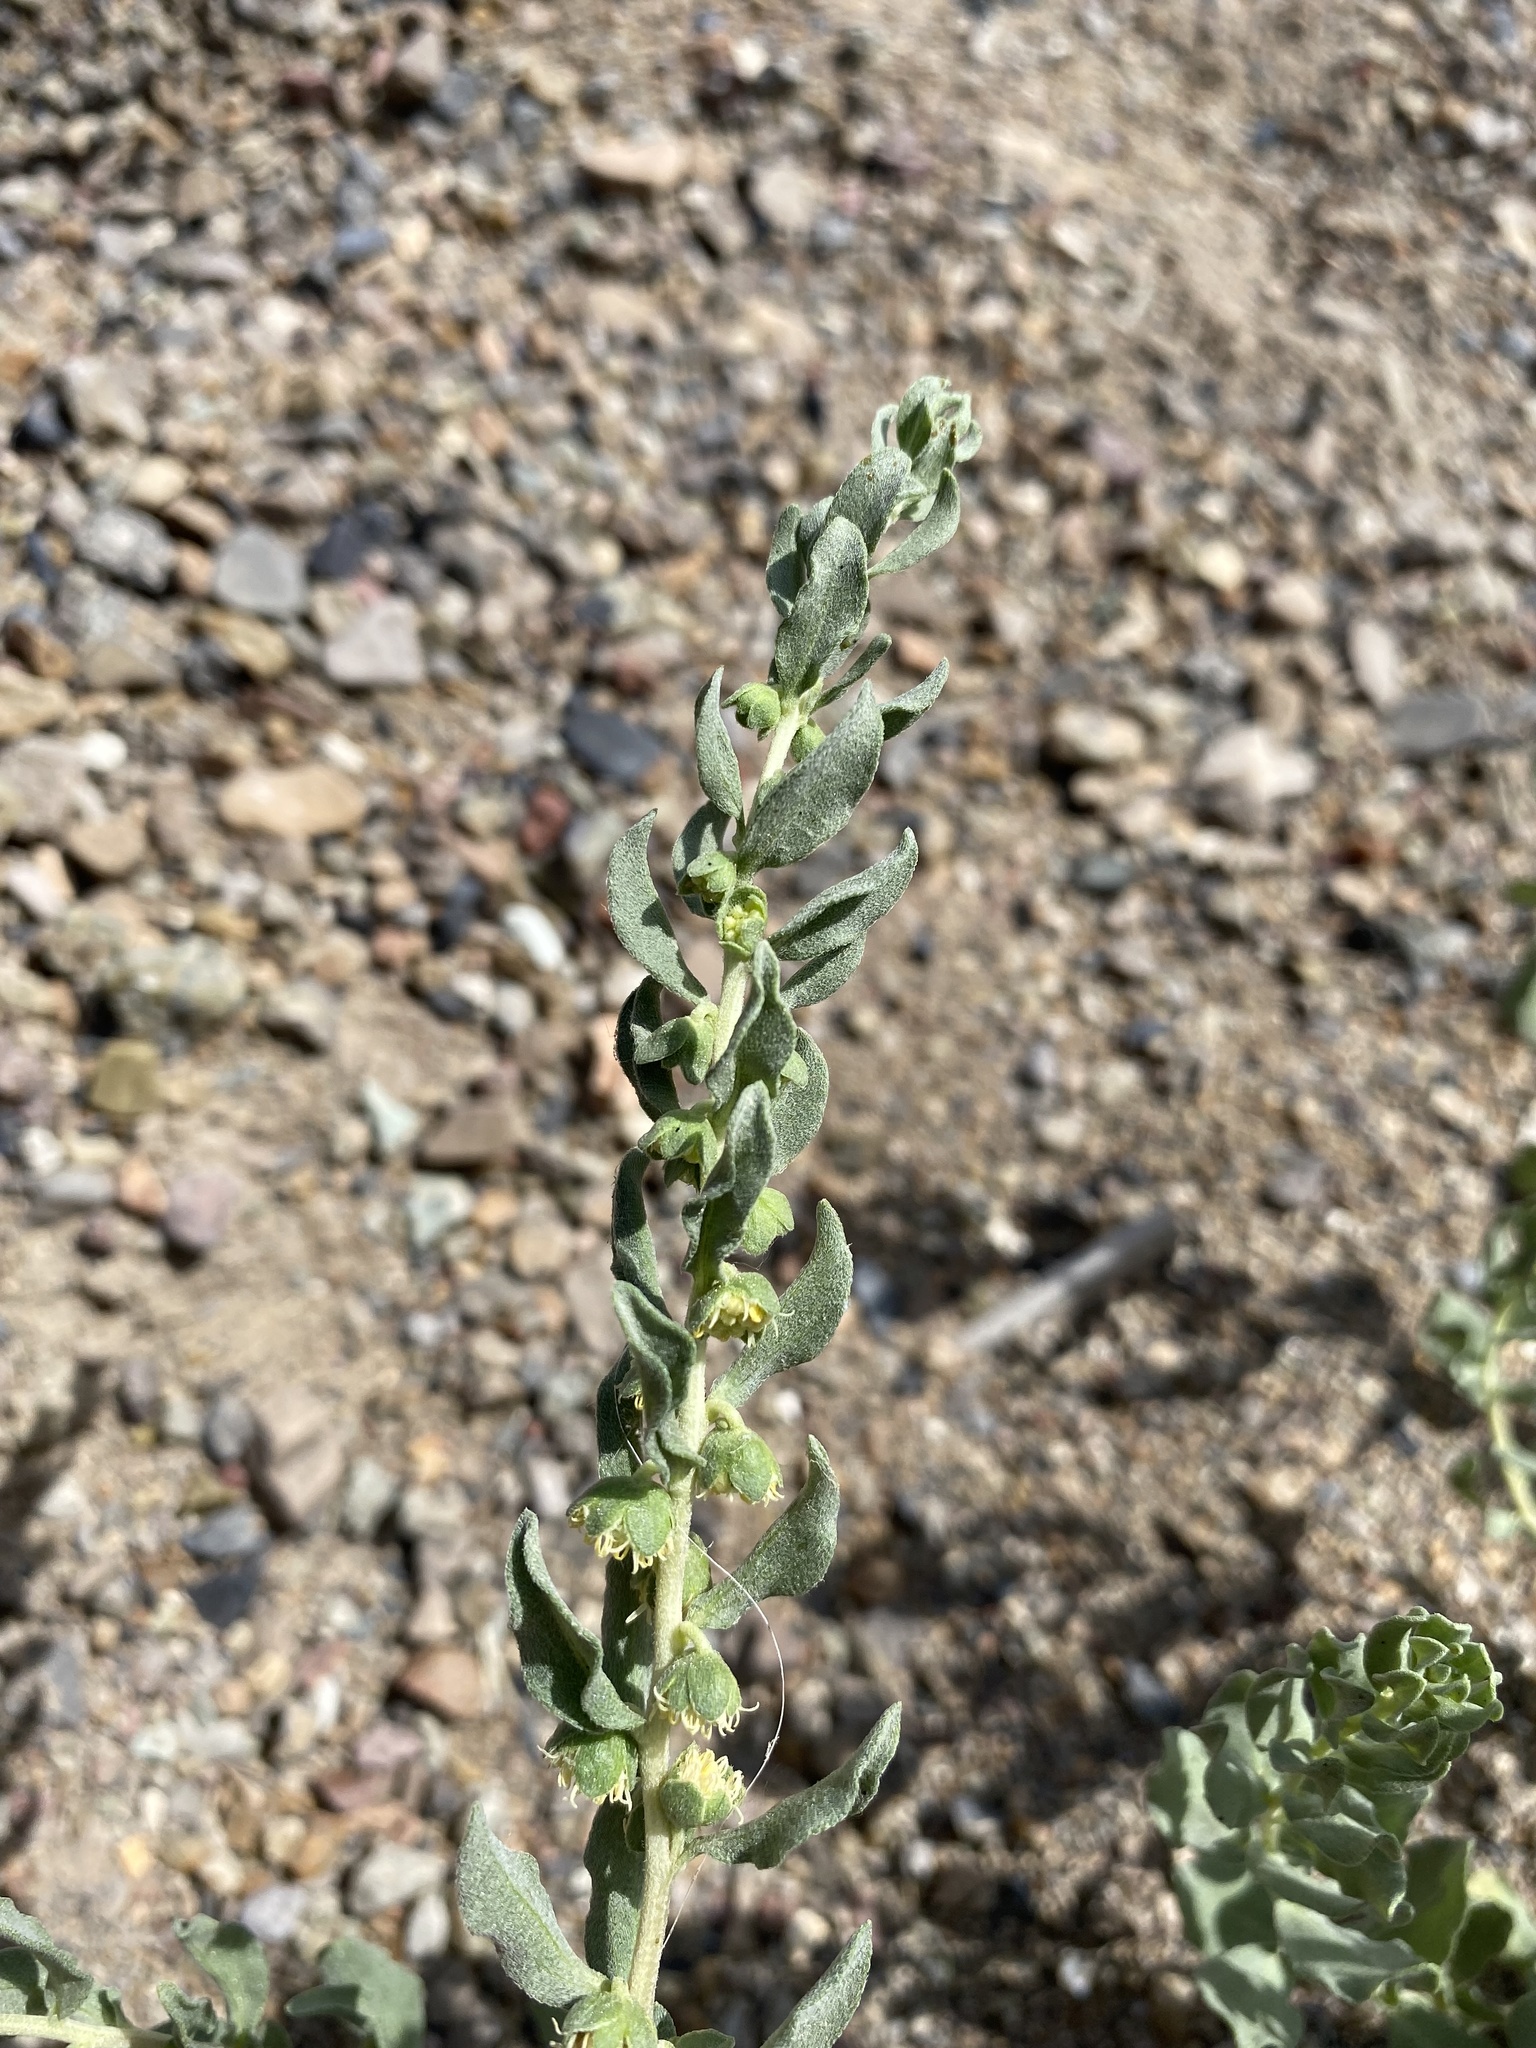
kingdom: Plantae
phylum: Tracheophyta
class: Magnoliopsida
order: Asterales
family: Asteraceae
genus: Iva
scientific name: Iva axillaris
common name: Poverty sumpweed
